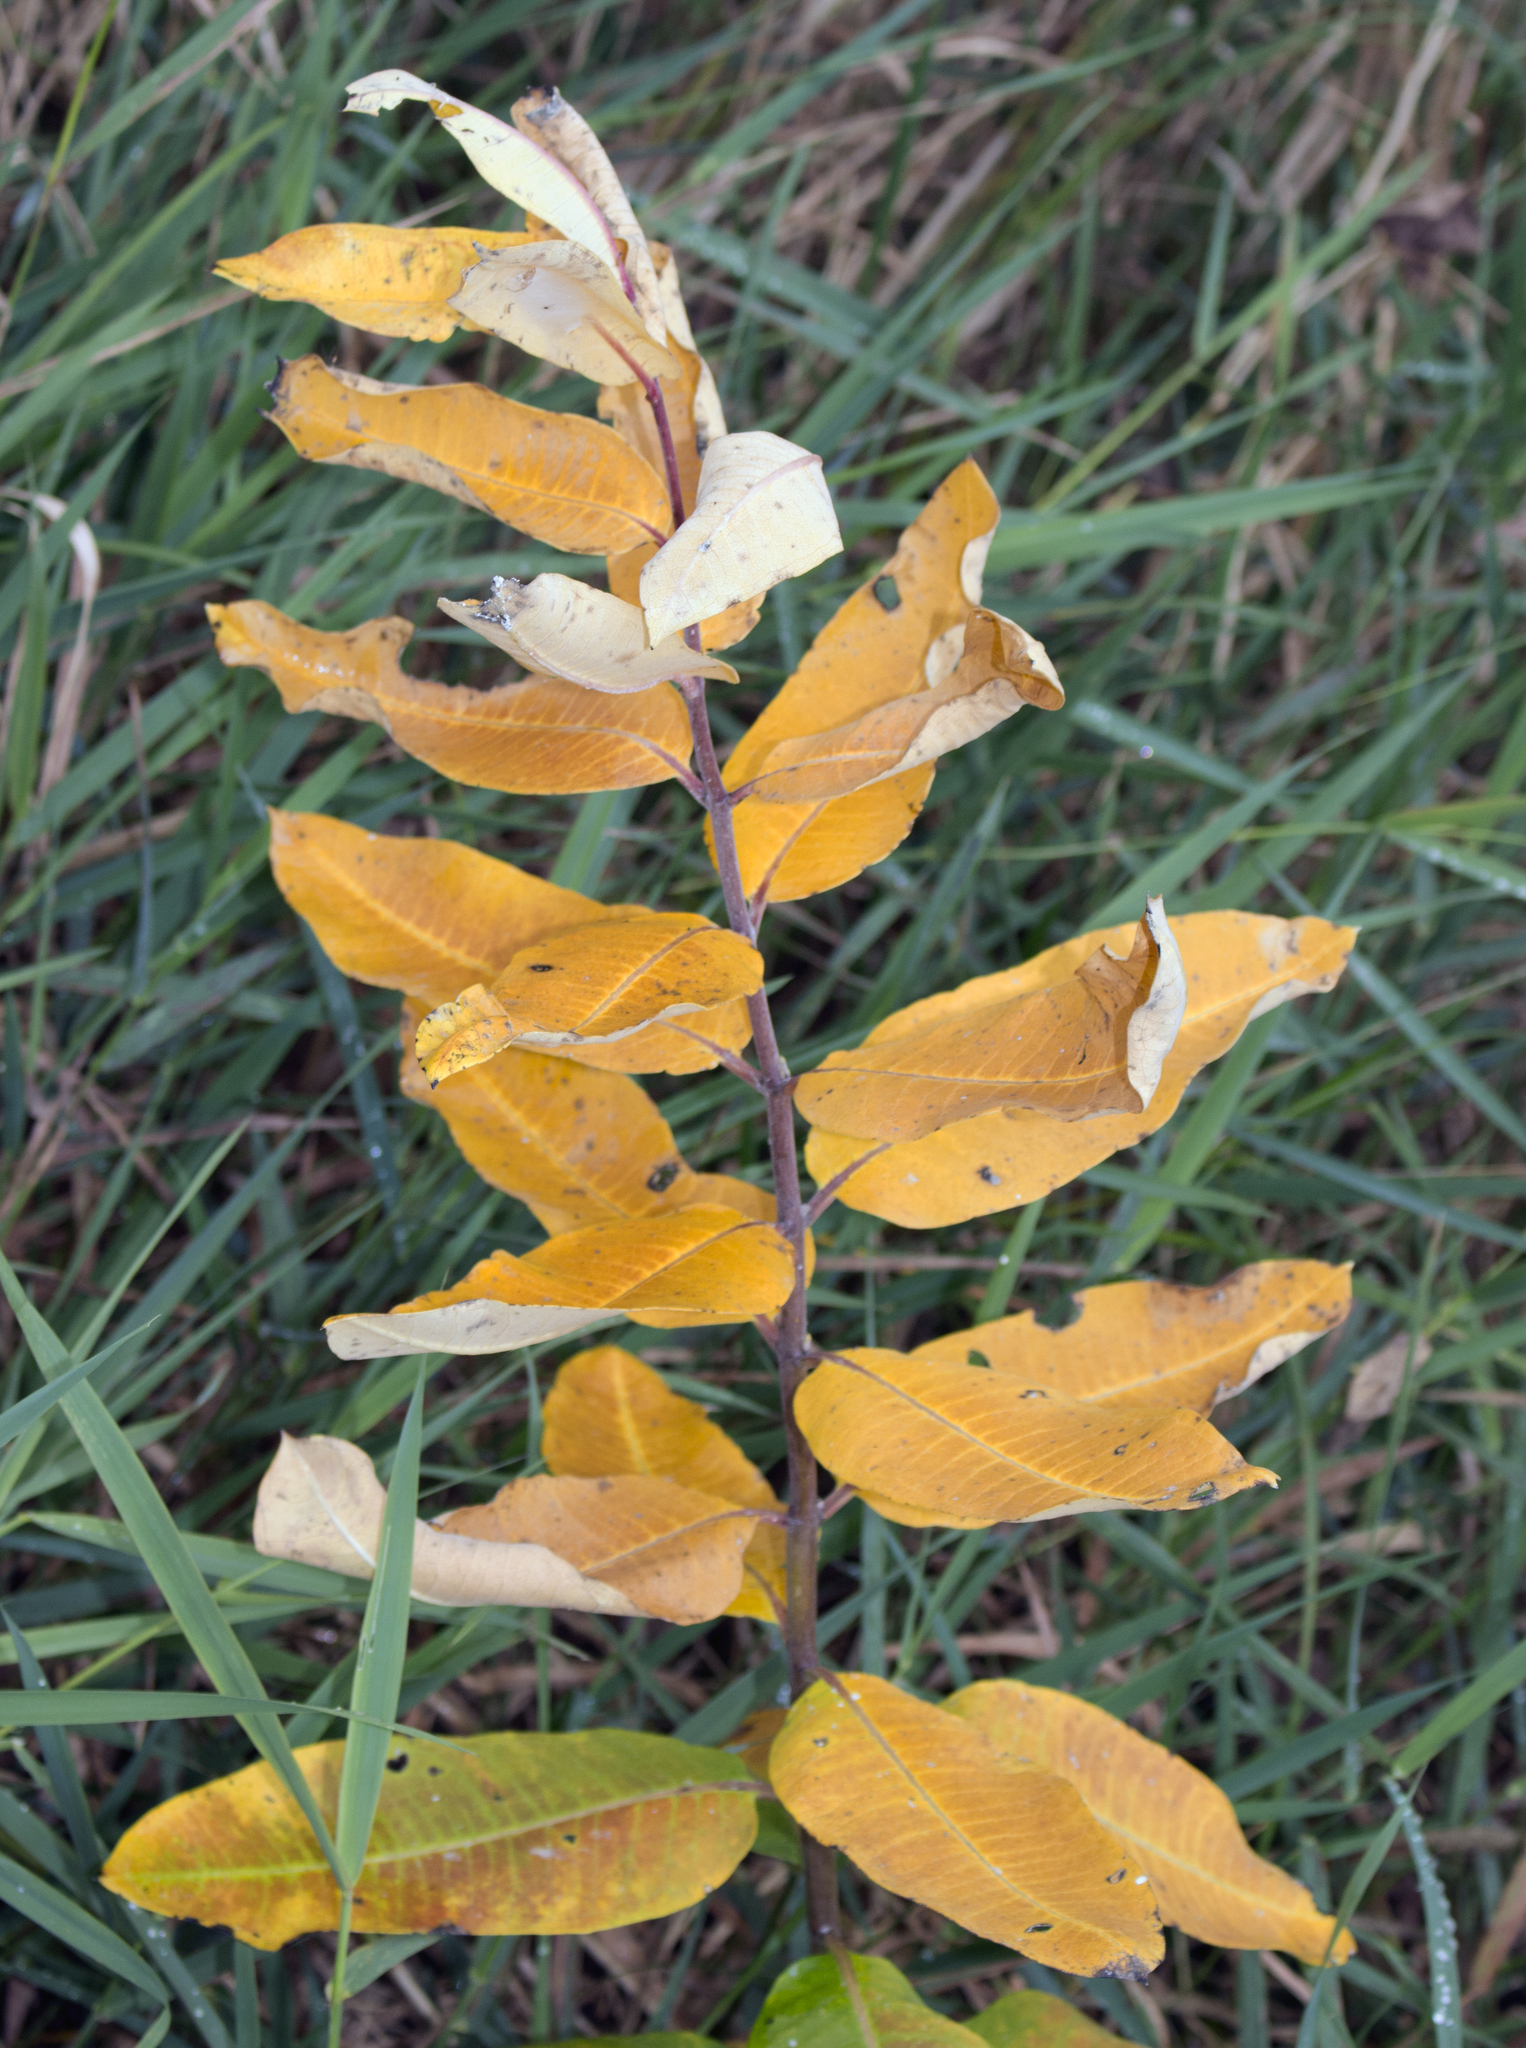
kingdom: Plantae
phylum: Tracheophyta
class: Magnoliopsida
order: Gentianales
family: Apocynaceae
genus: Asclepias
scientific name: Asclepias syriaca
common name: Common milkweed
